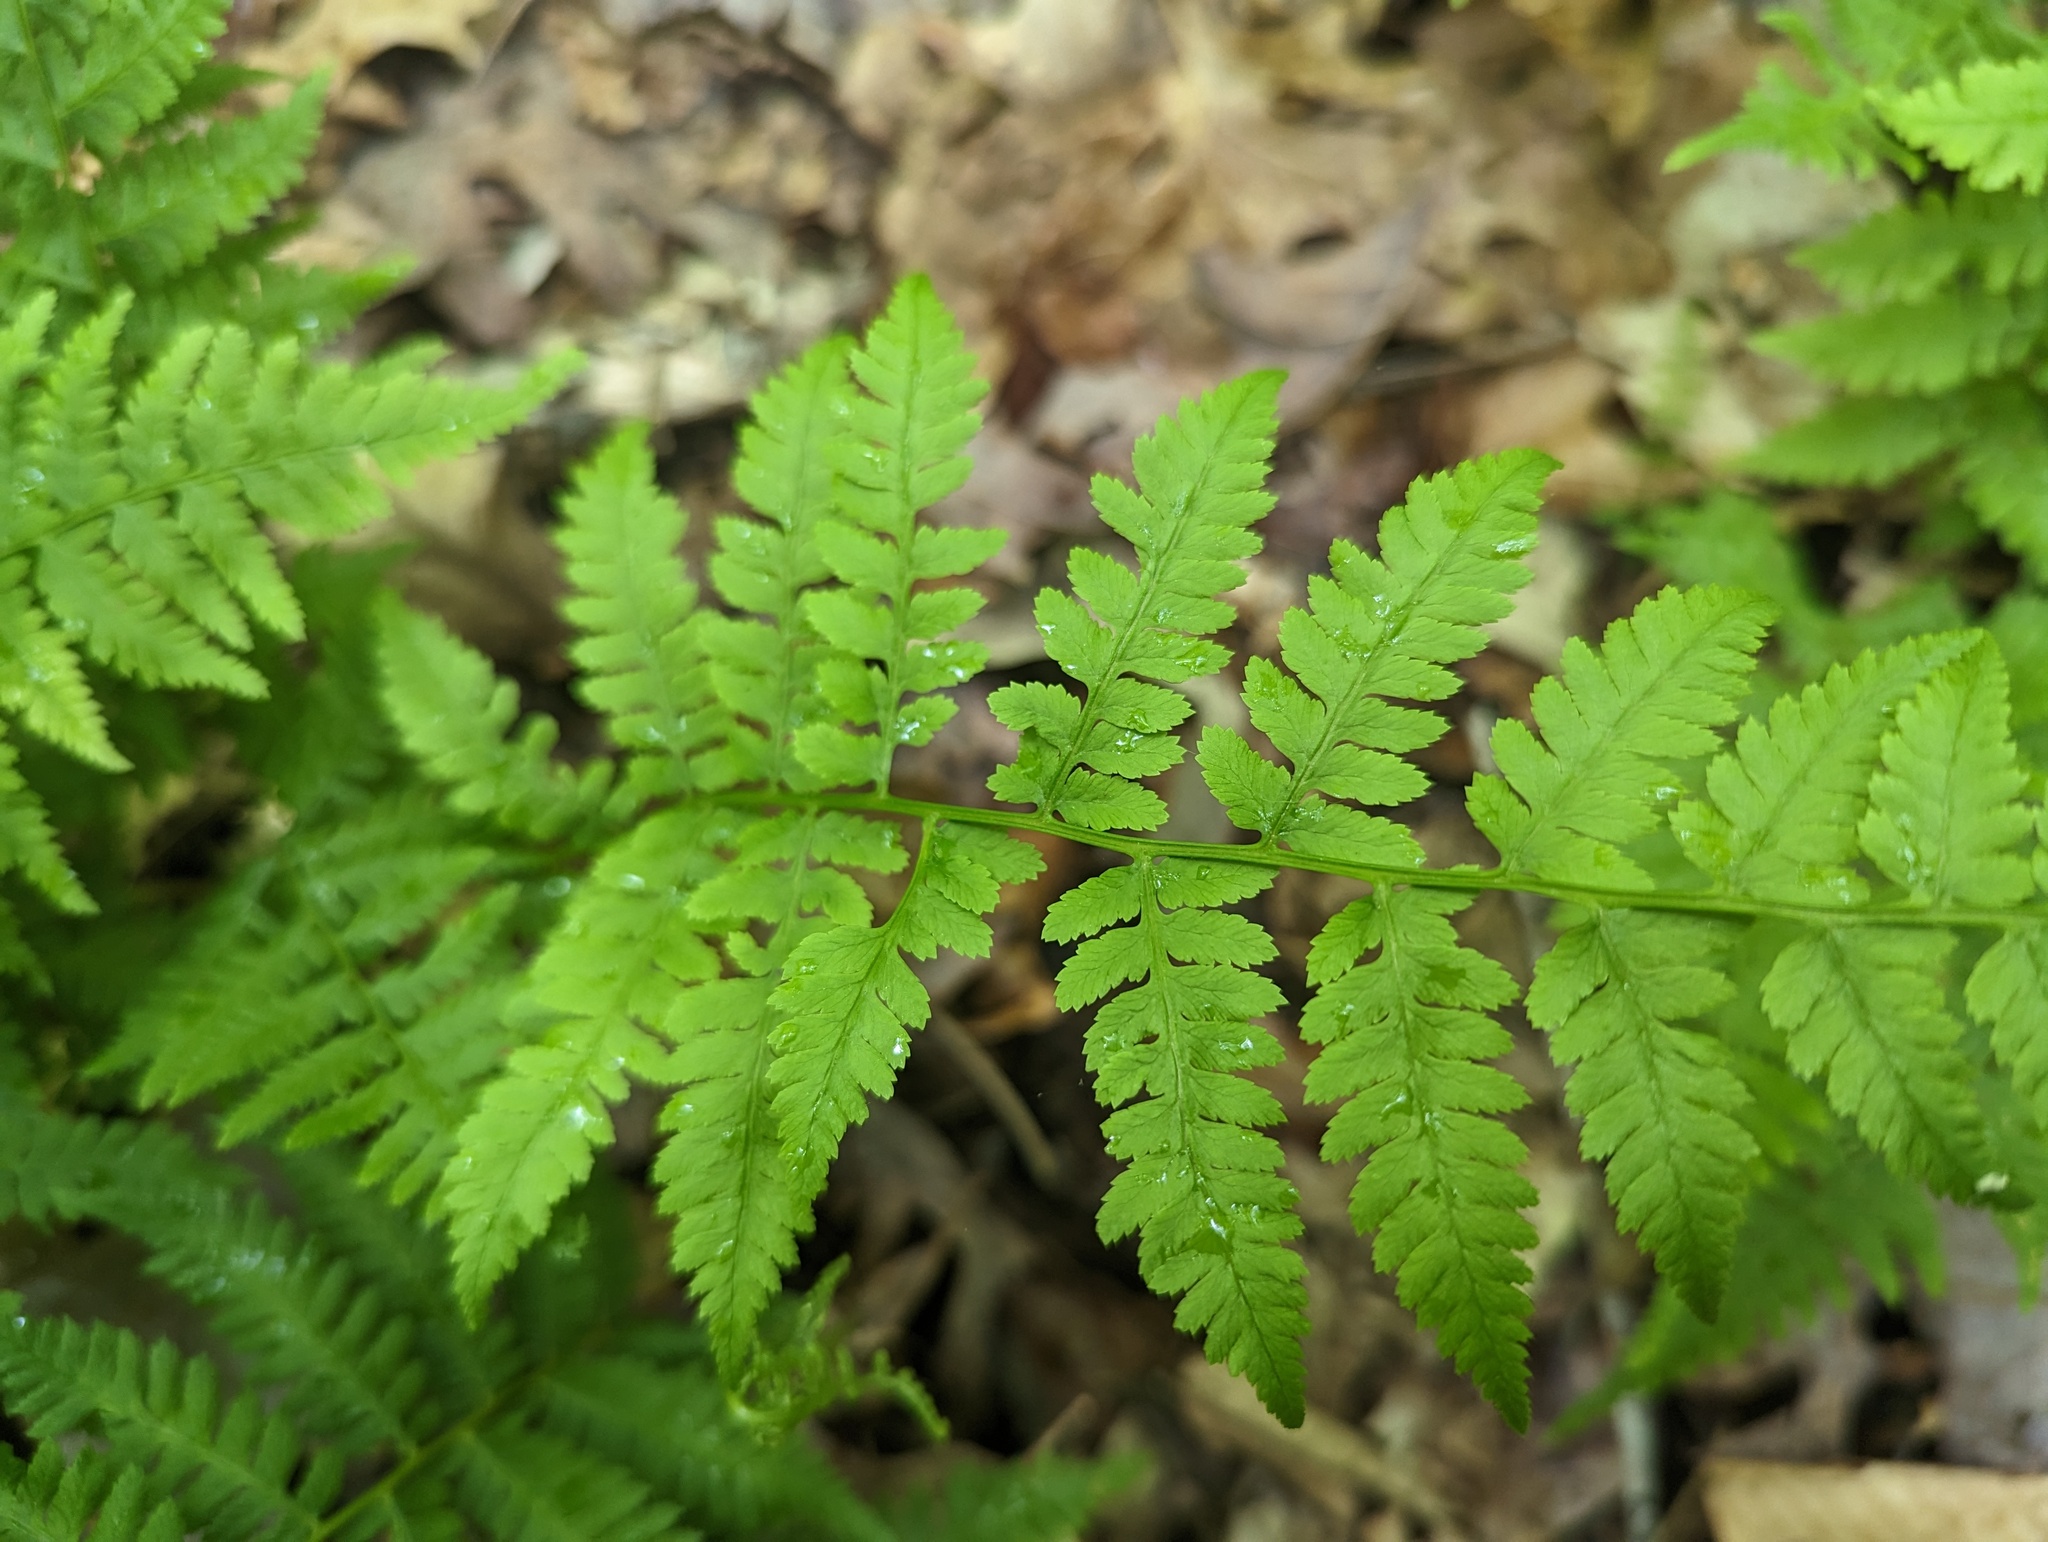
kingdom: Plantae
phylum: Tracheophyta
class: Polypodiopsida
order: Polypodiales
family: Athyriaceae
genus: Athyrium
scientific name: Athyrium asplenioides
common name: Southern lady fern
